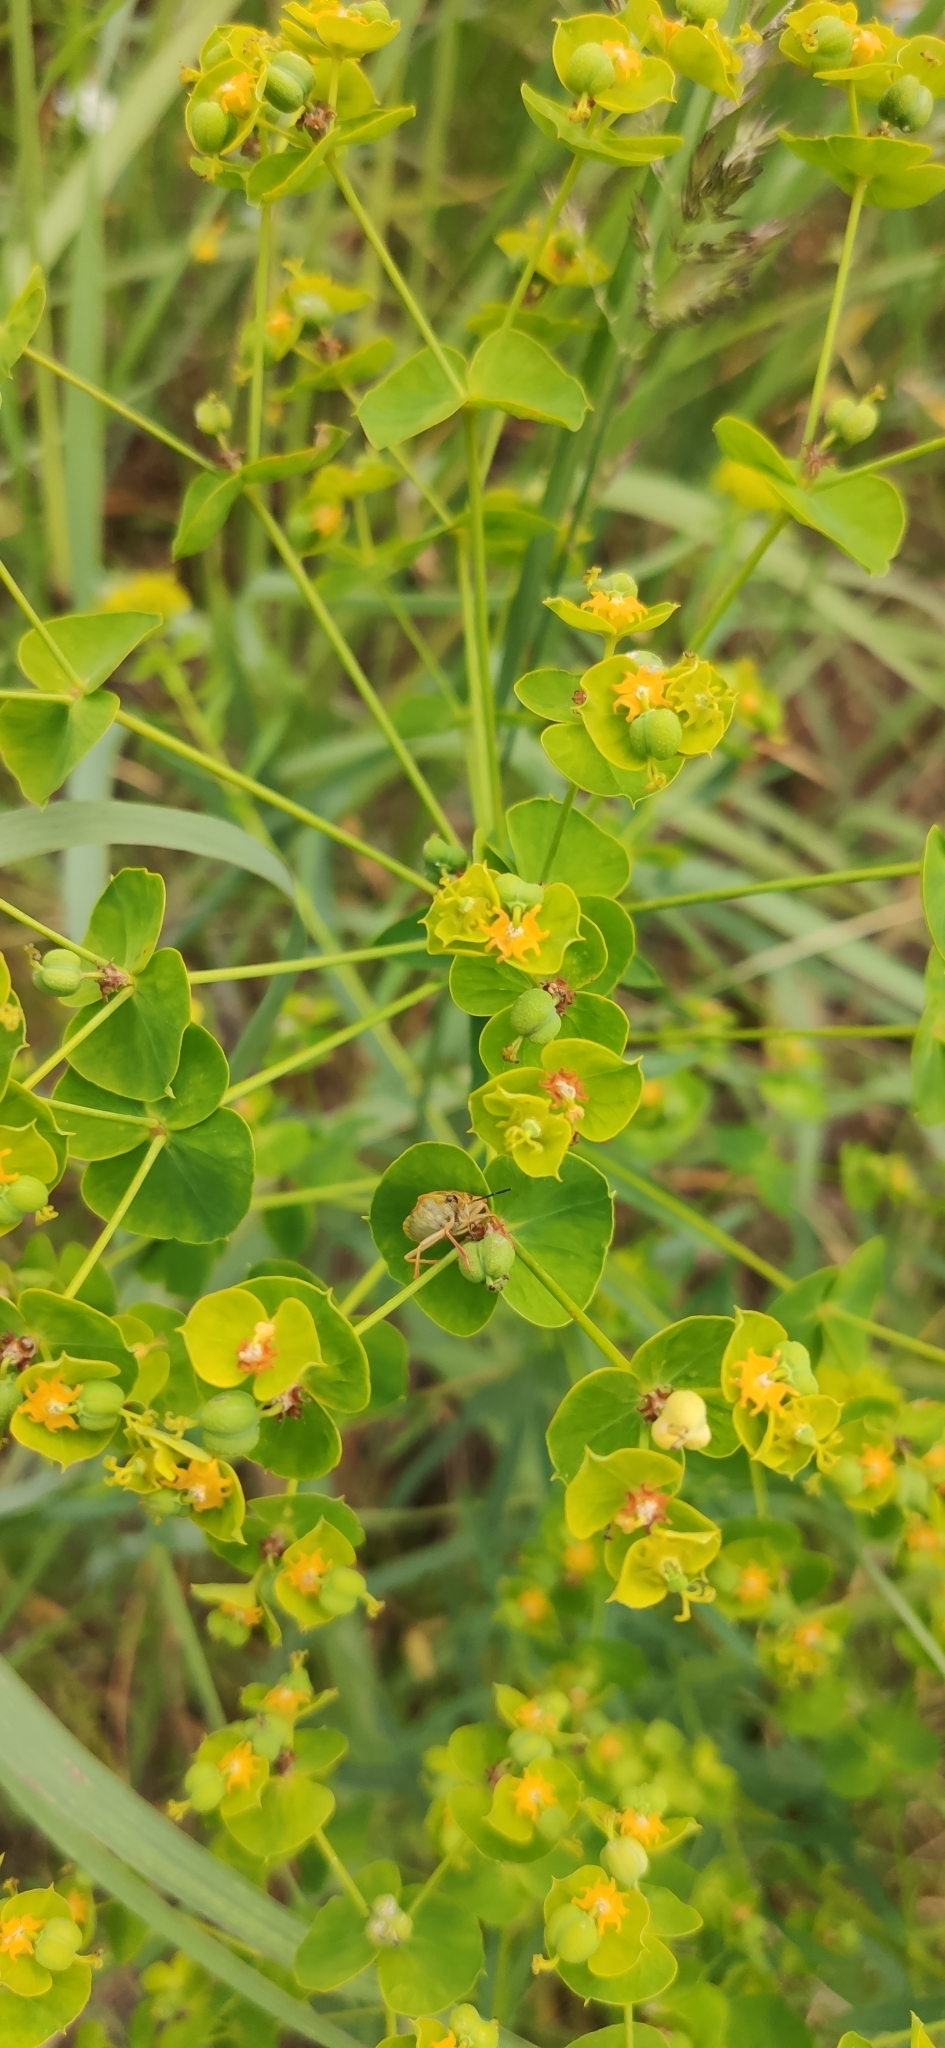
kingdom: Plantae
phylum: Tracheophyta
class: Magnoliopsida
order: Malpighiales
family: Euphorbiaceae
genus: Euphorbia
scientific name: Euphorbia virgata
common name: Leafy spurge
